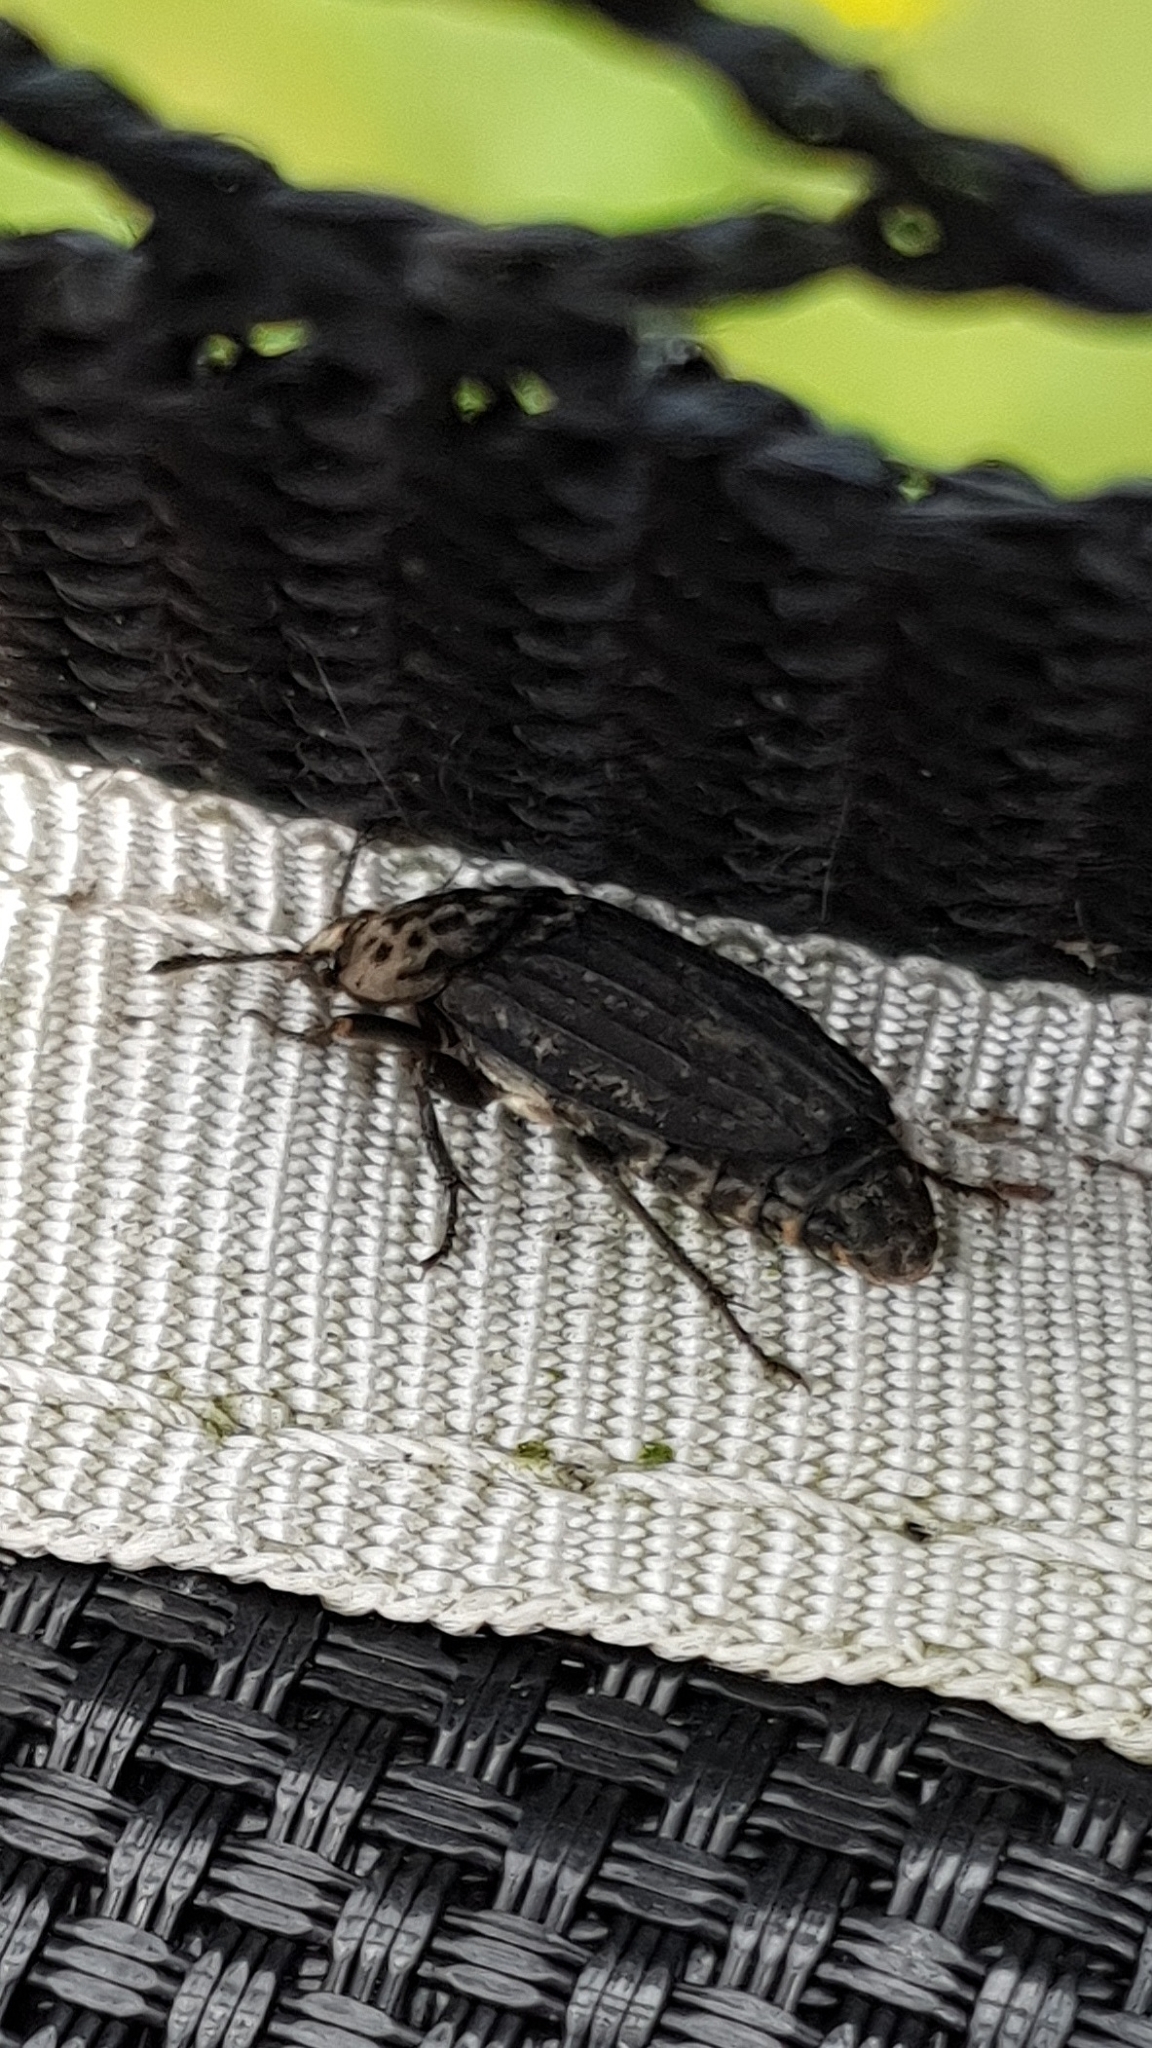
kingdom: Animalia
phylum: Arthropoda
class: Insecta
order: Coleoptera
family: Staphylinidae
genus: Thanatophilus
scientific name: Thanatophilus sinuatus
